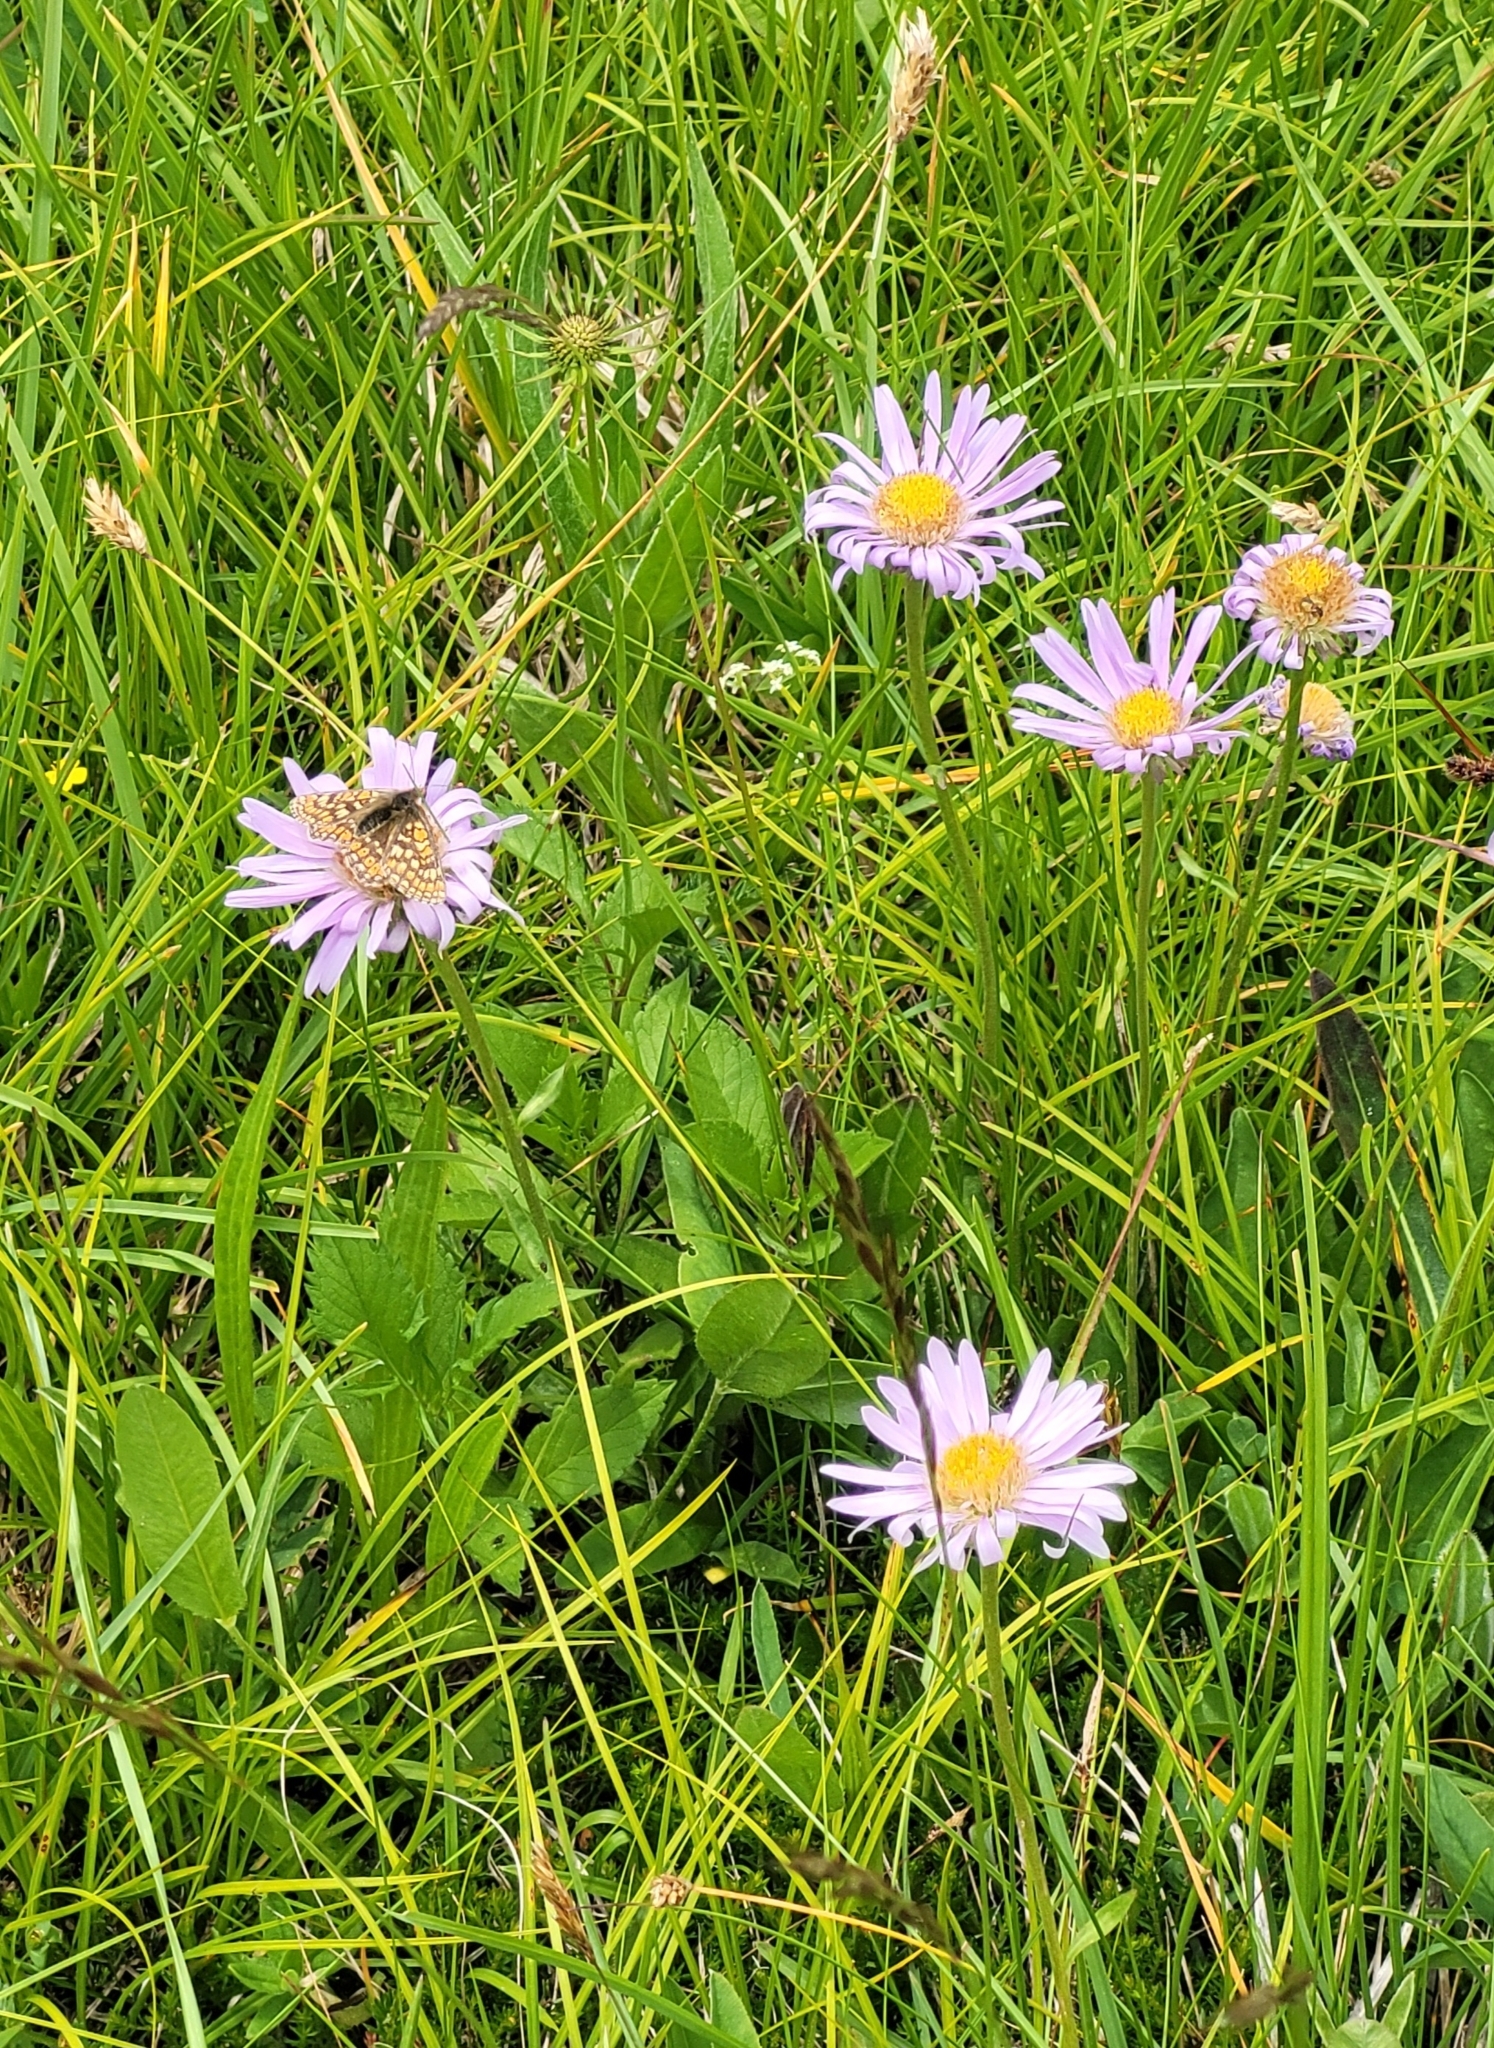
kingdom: Plantae
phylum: Tracheophyta
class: Magnoliopsida
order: Asterales
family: Asteraceae
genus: Aster
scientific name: Aster alpinus
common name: Alpine aster
